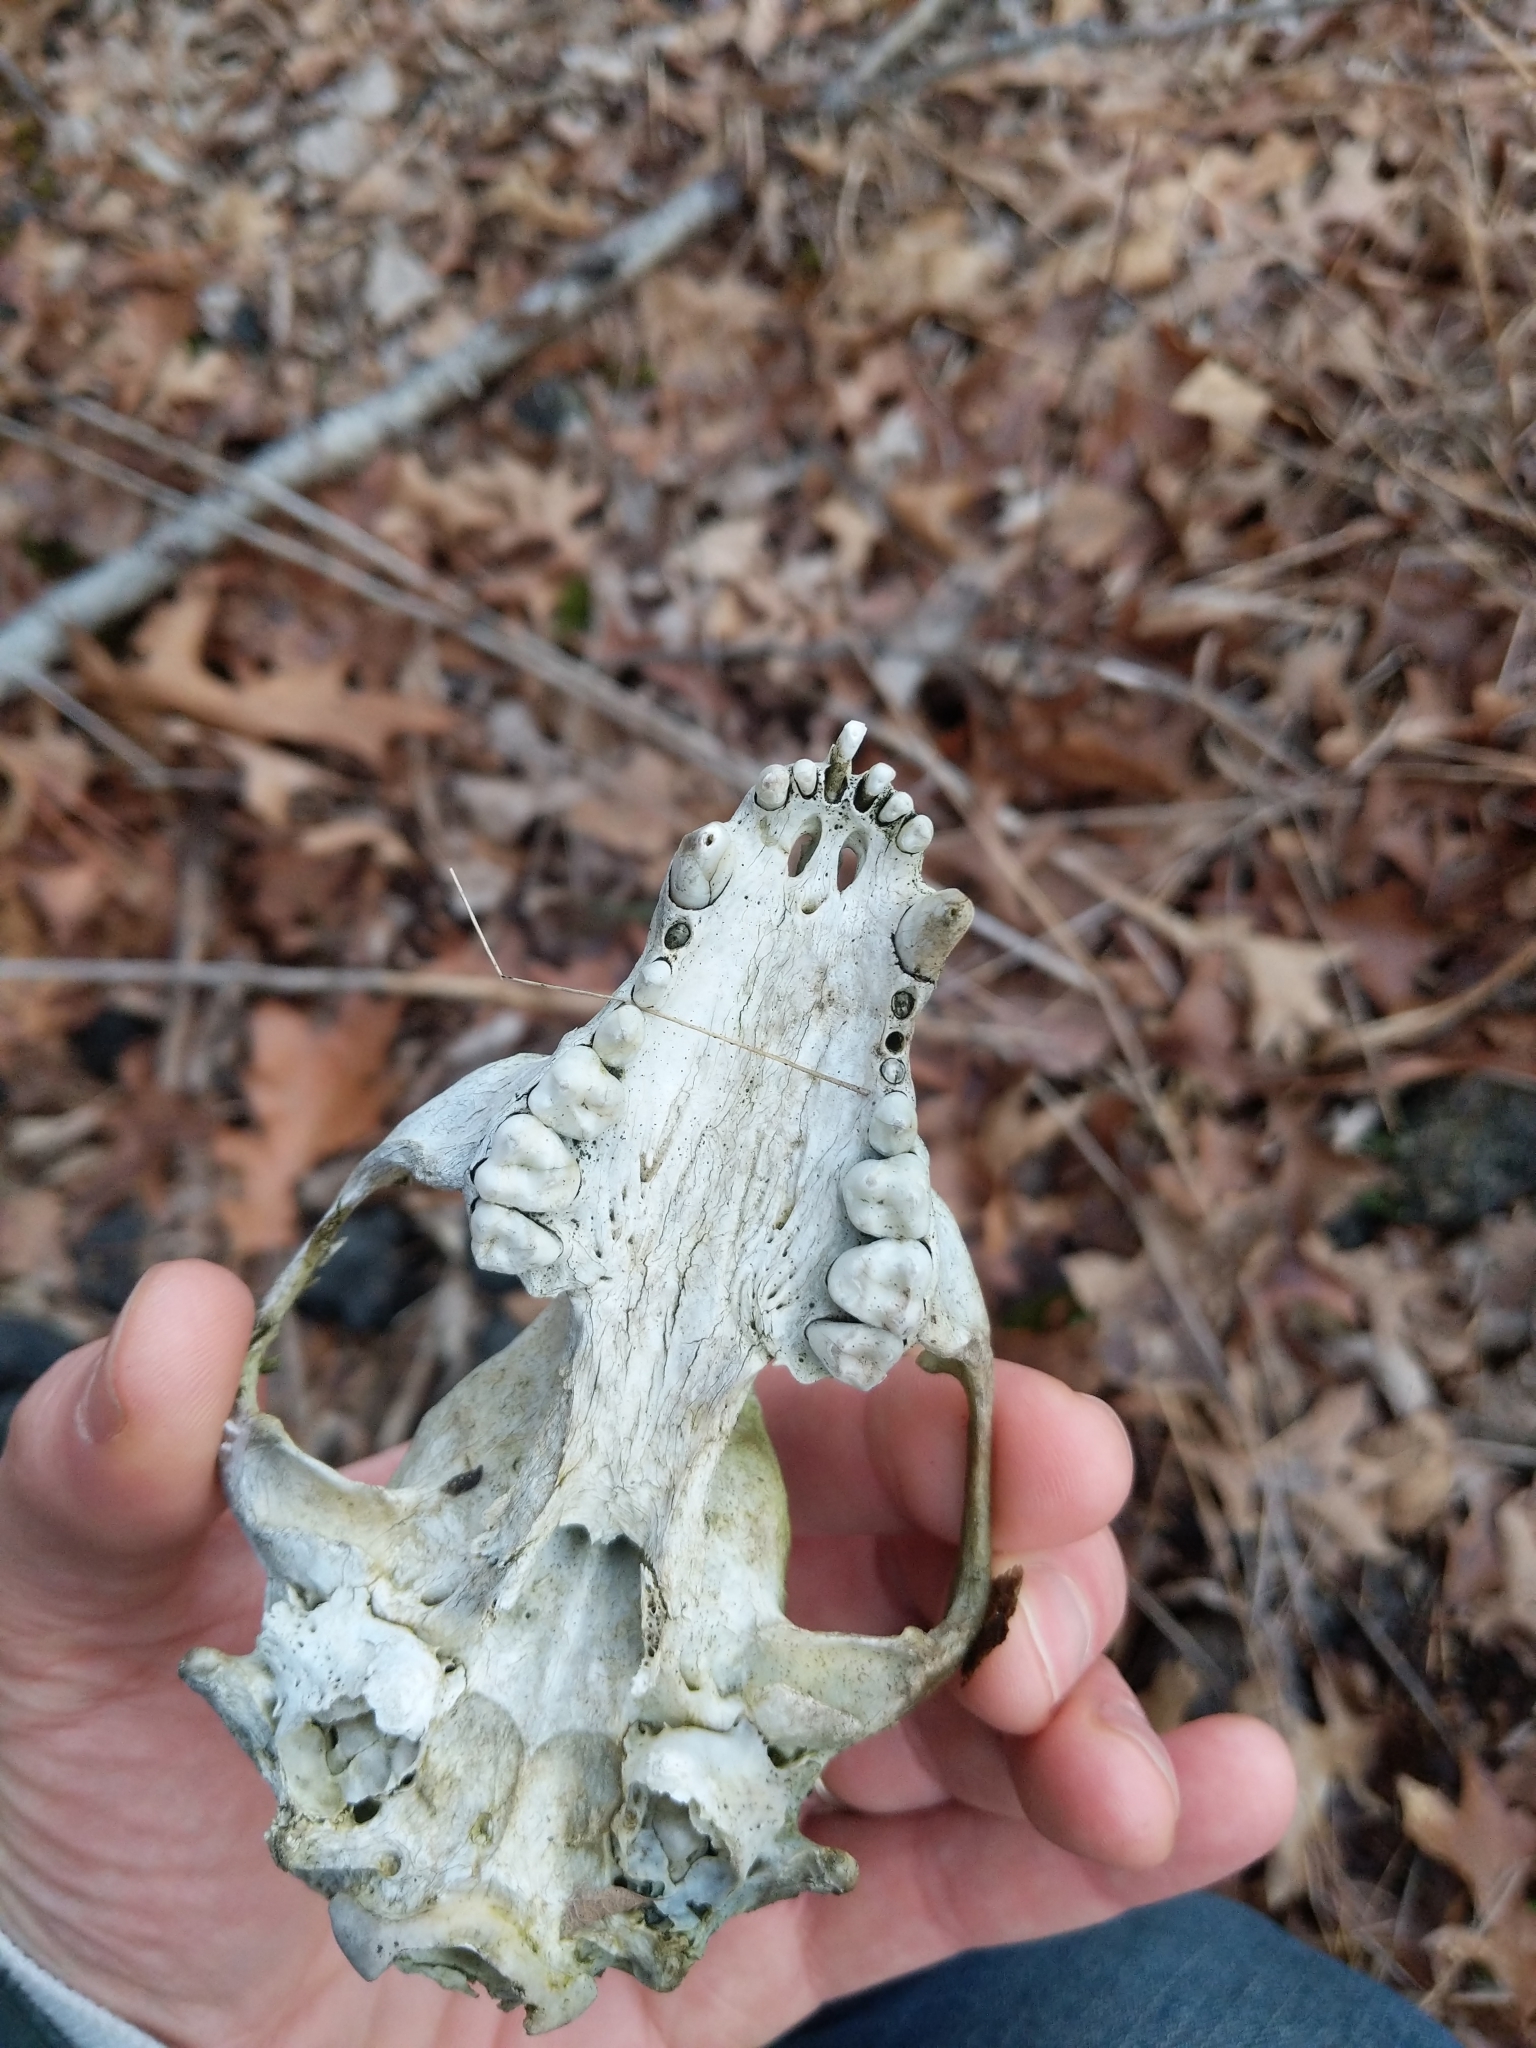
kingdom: Animalia
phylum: Chordata
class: Mammalia
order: Carnivora
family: Procyonidae
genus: Procyon
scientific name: Procyon lotor
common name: Raccoon
